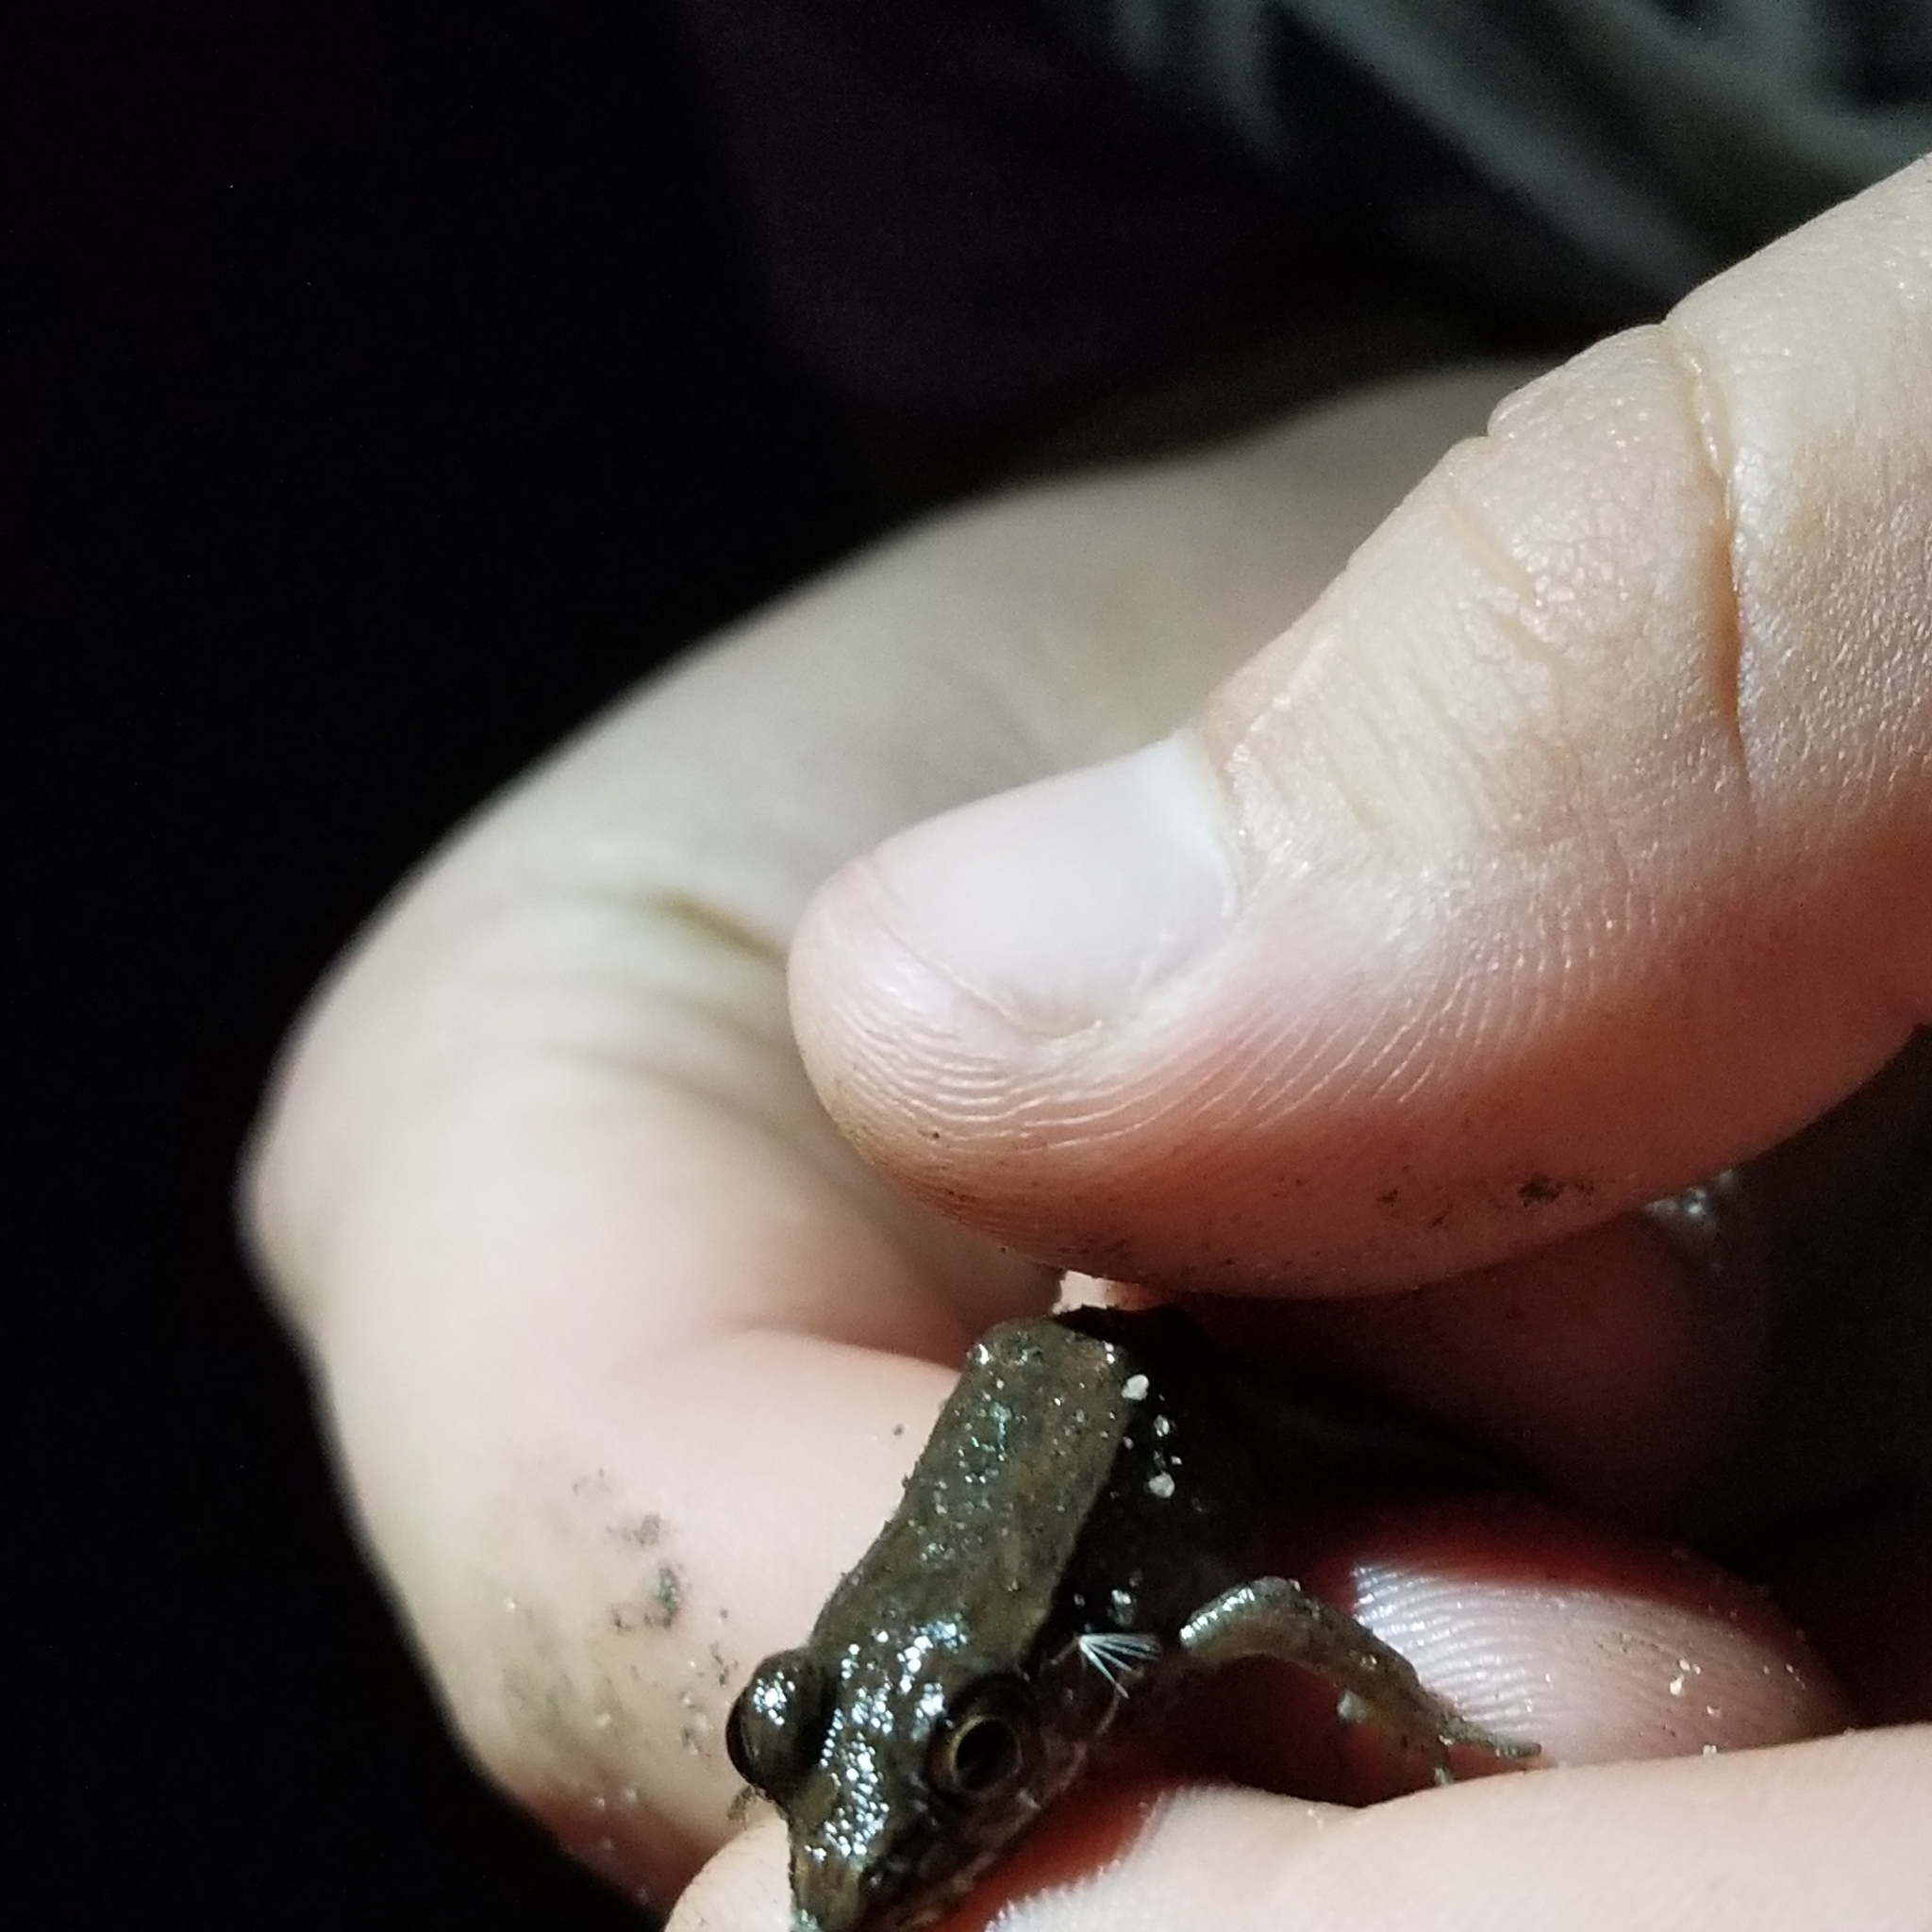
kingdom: Animalia
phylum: Chordata
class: Amphibia
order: Anura
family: Ranidae
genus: Lithobates
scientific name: Lithobates clamitans
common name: Green frog
